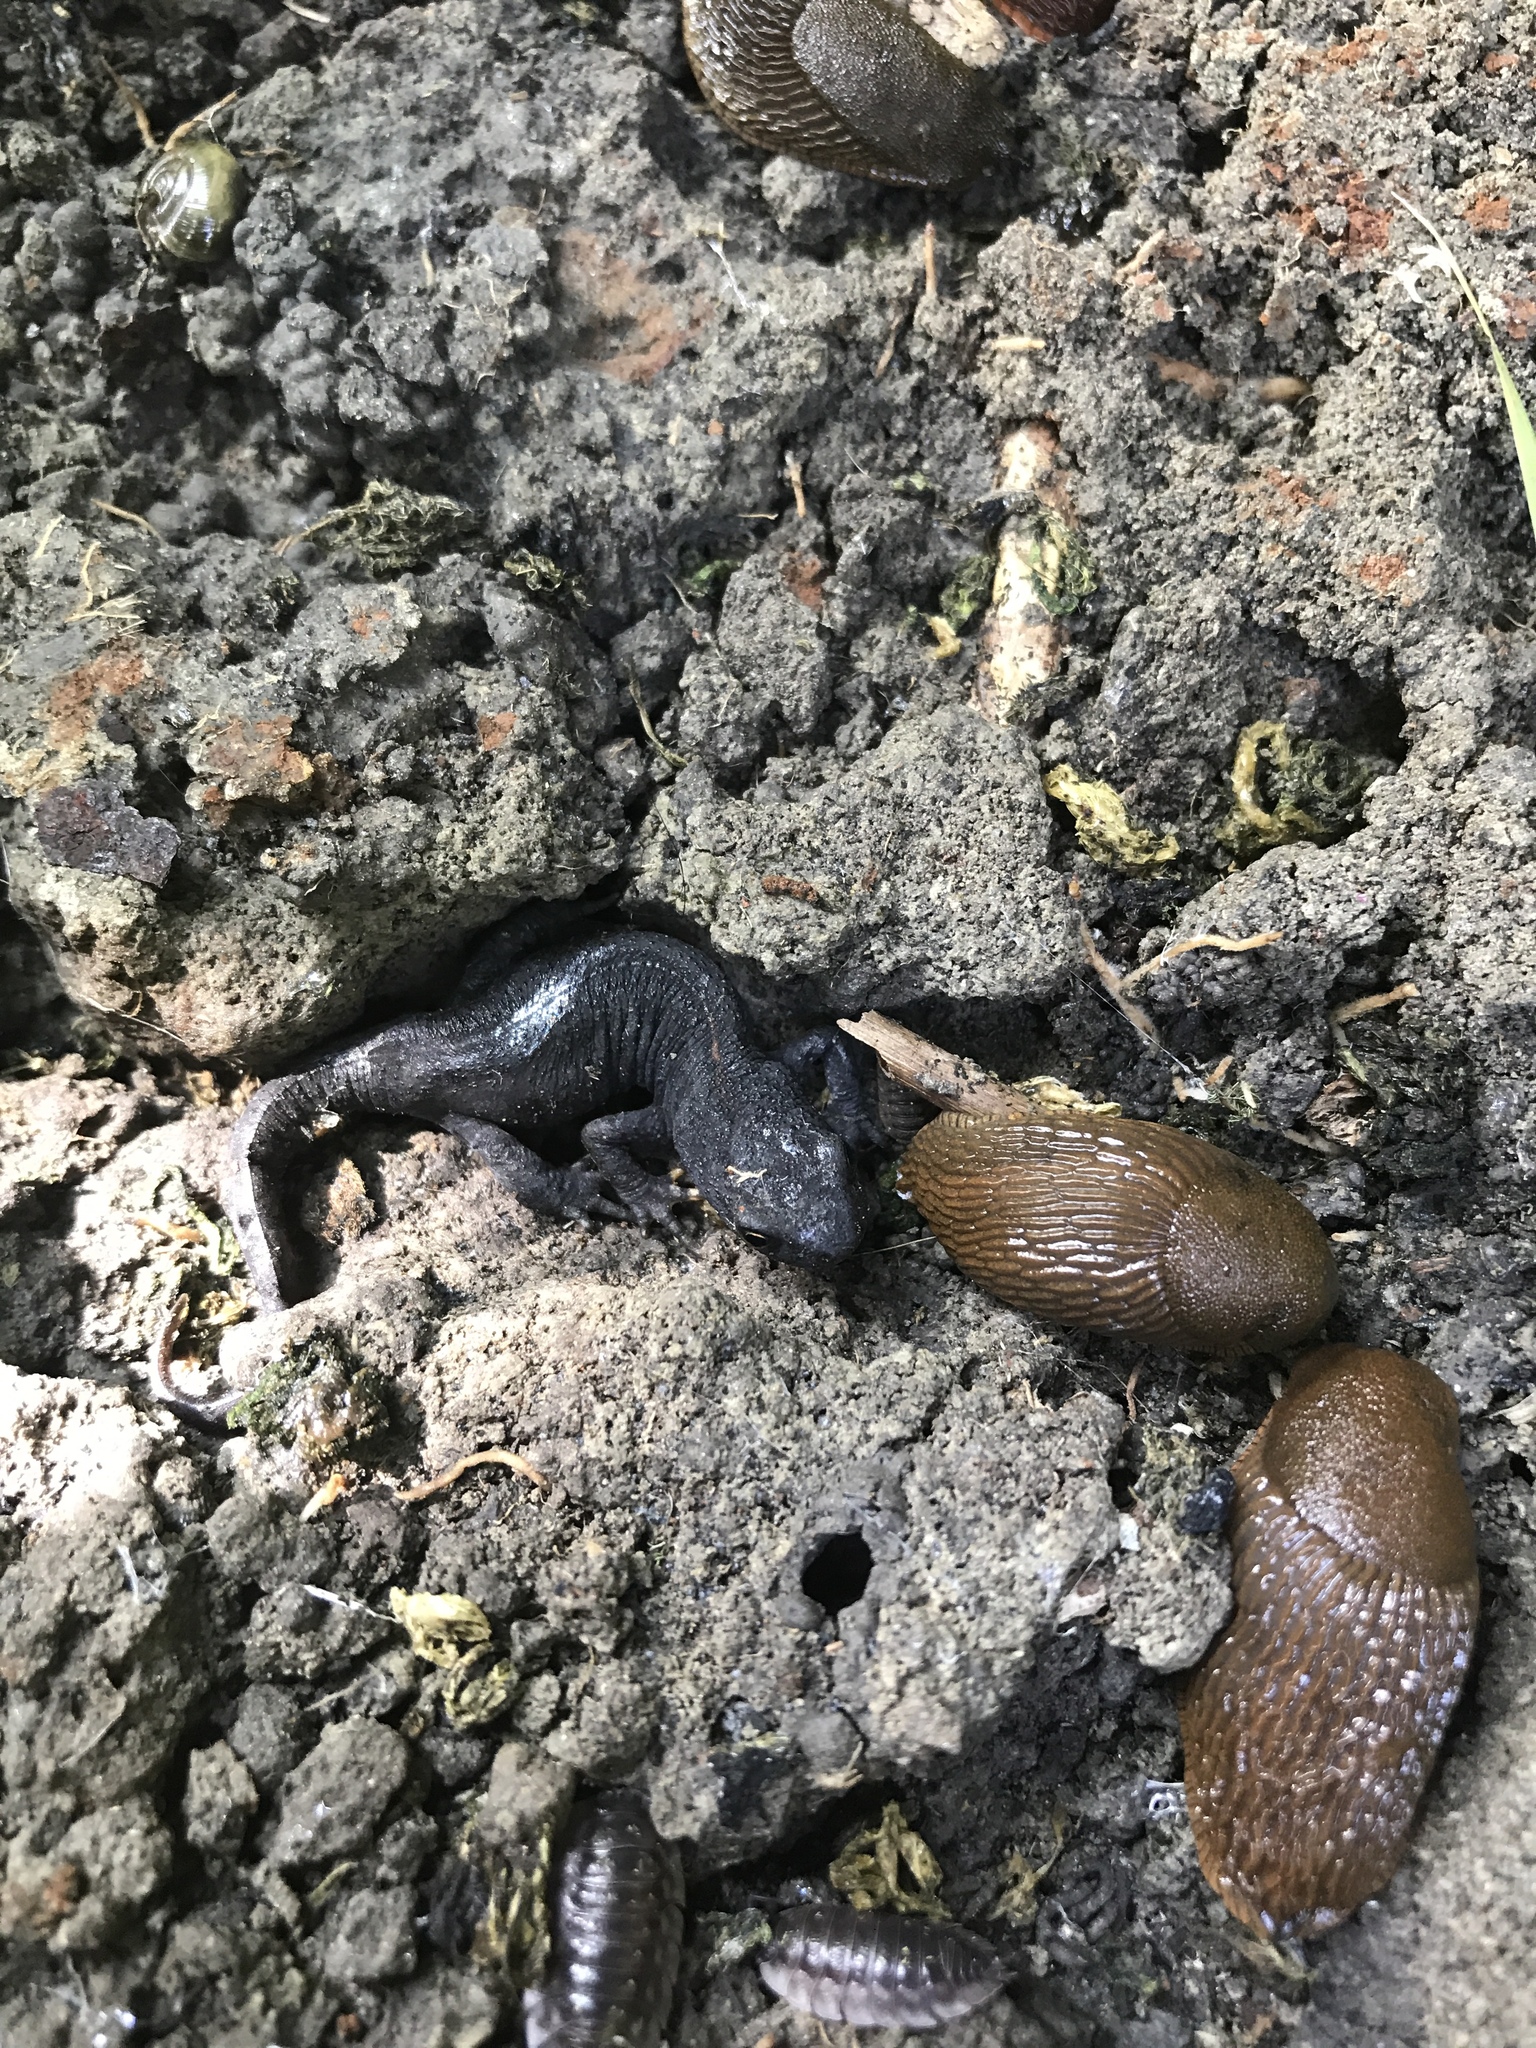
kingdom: Animalia
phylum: Chordata
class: Amphibia
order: Caudata
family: Salamandridae
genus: Ichthyosaura
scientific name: Ichthyosaura alpestris
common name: Alpine newt
